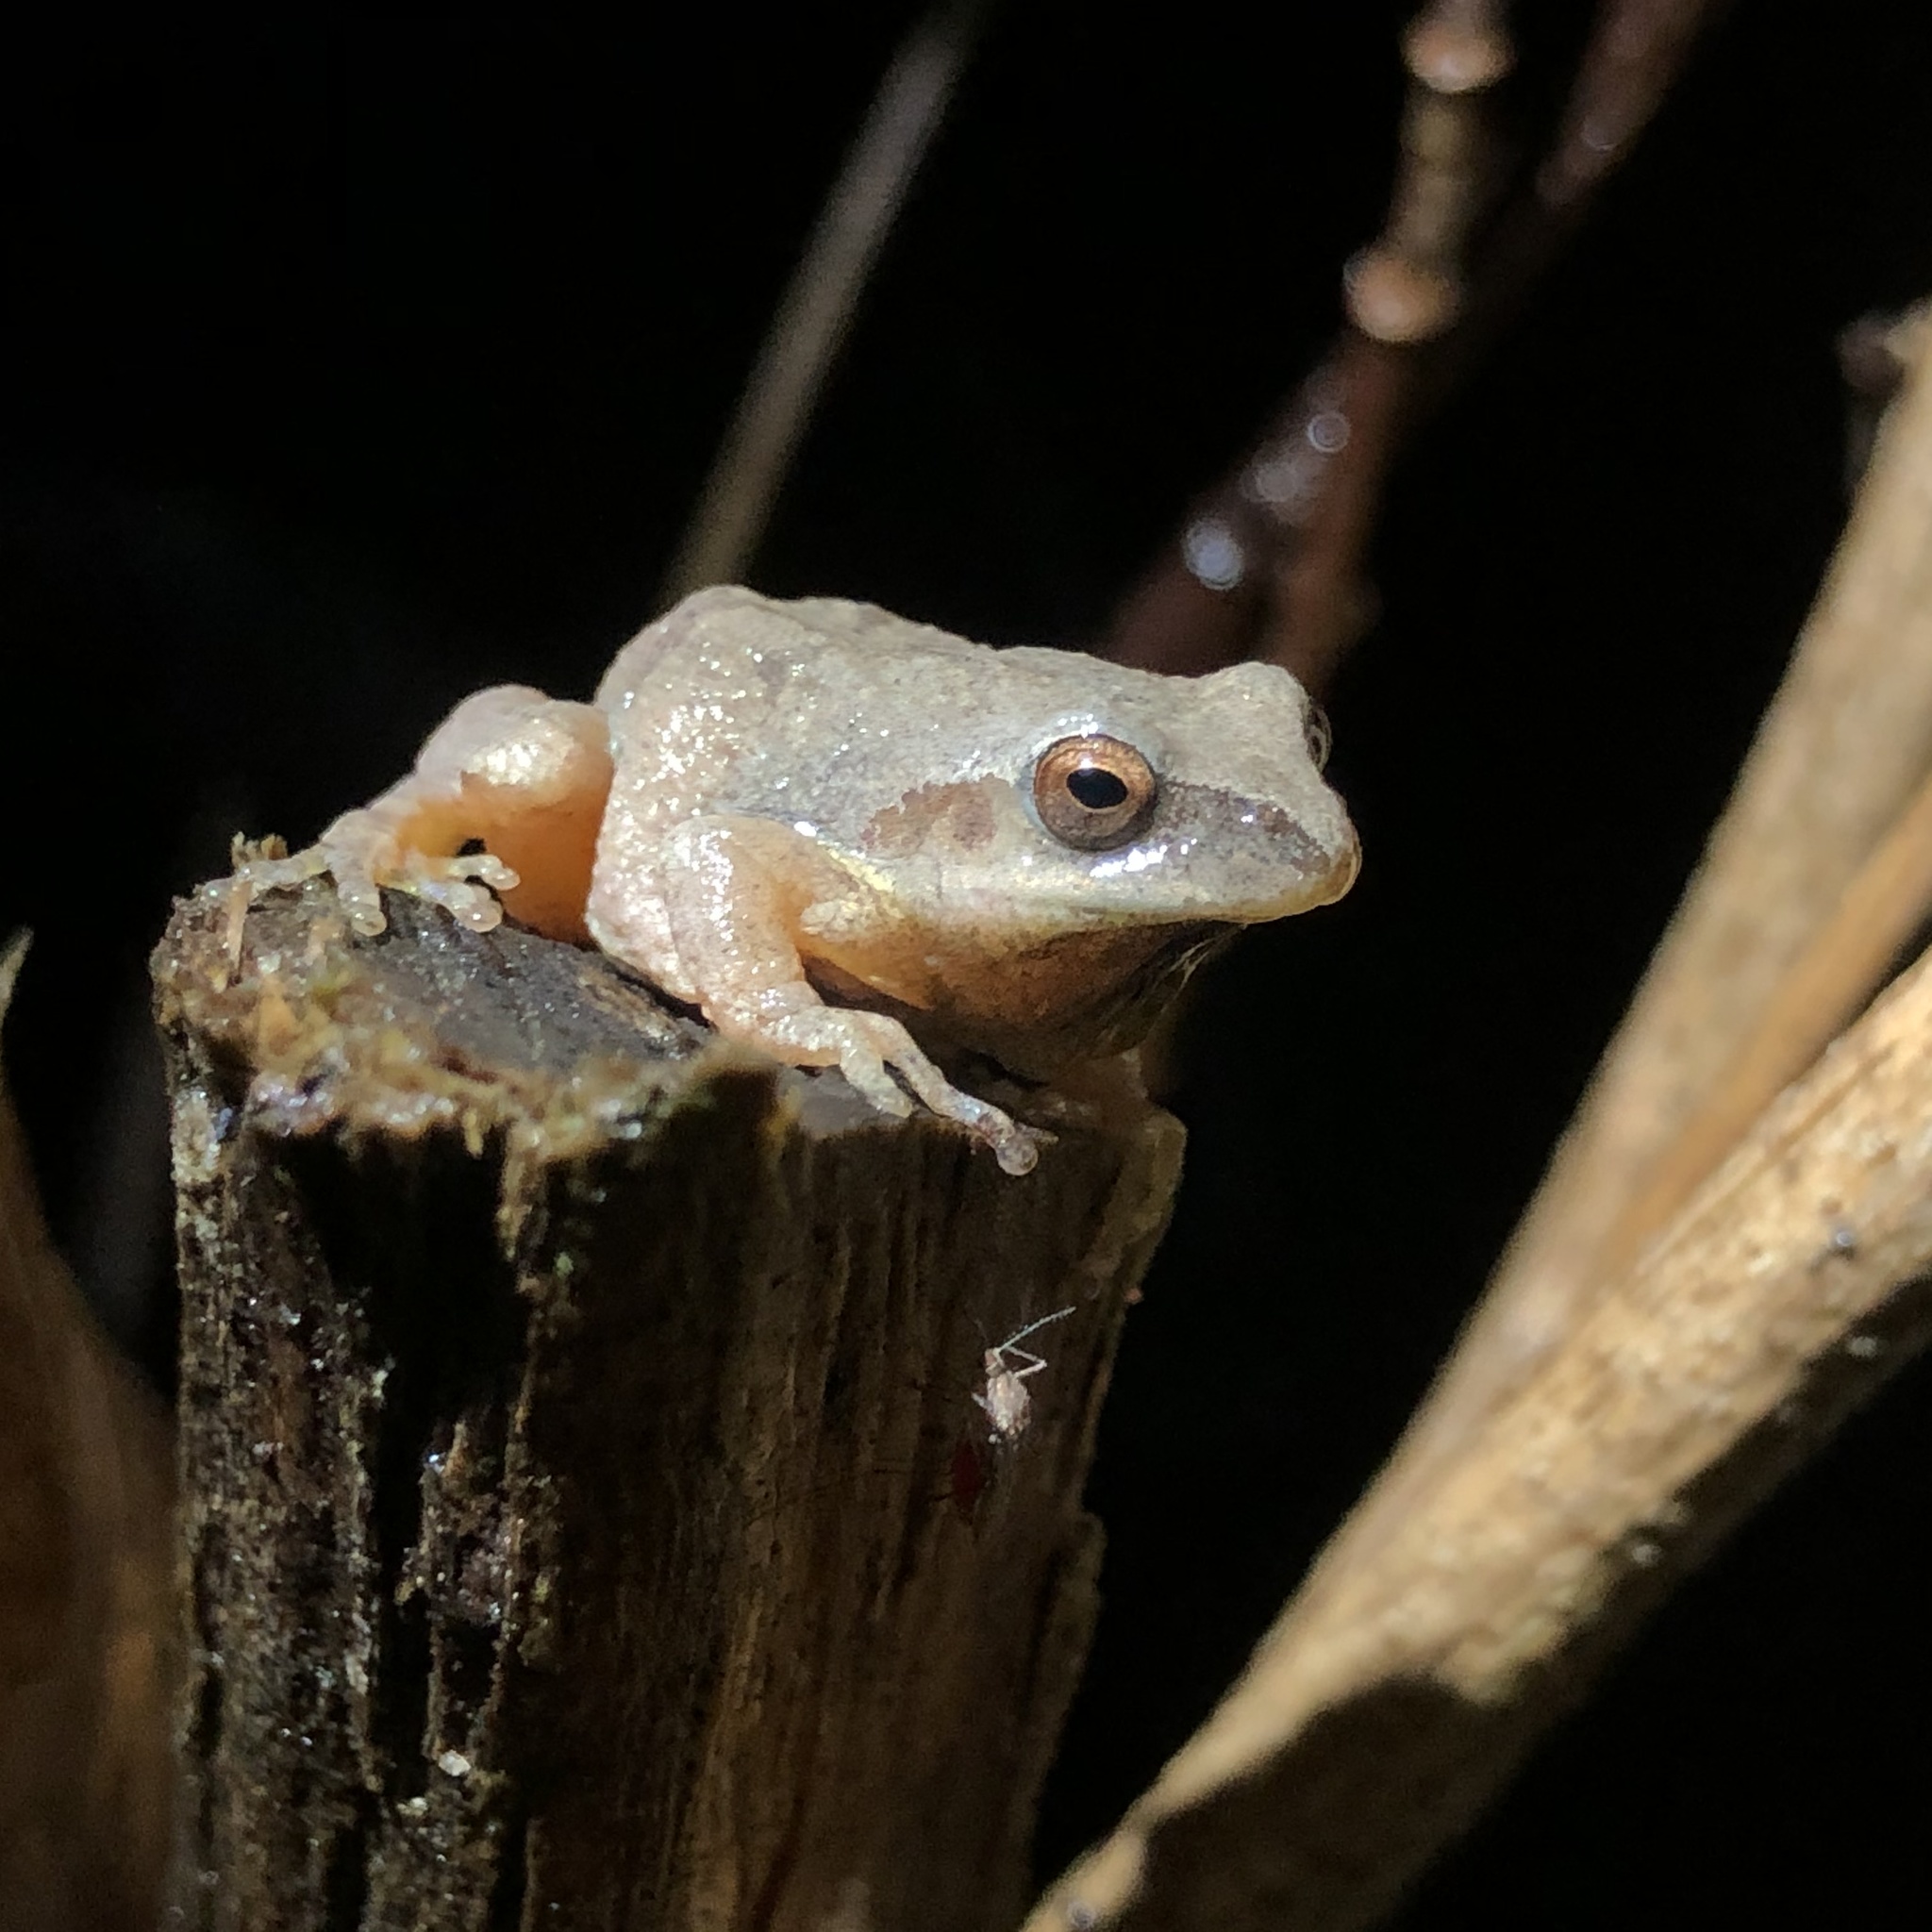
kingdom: Animalia
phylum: Chordata
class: Amphibia
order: Anura
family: Hylidae
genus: Pseudacris
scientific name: Pseudacris crucifer
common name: Spring peeper
